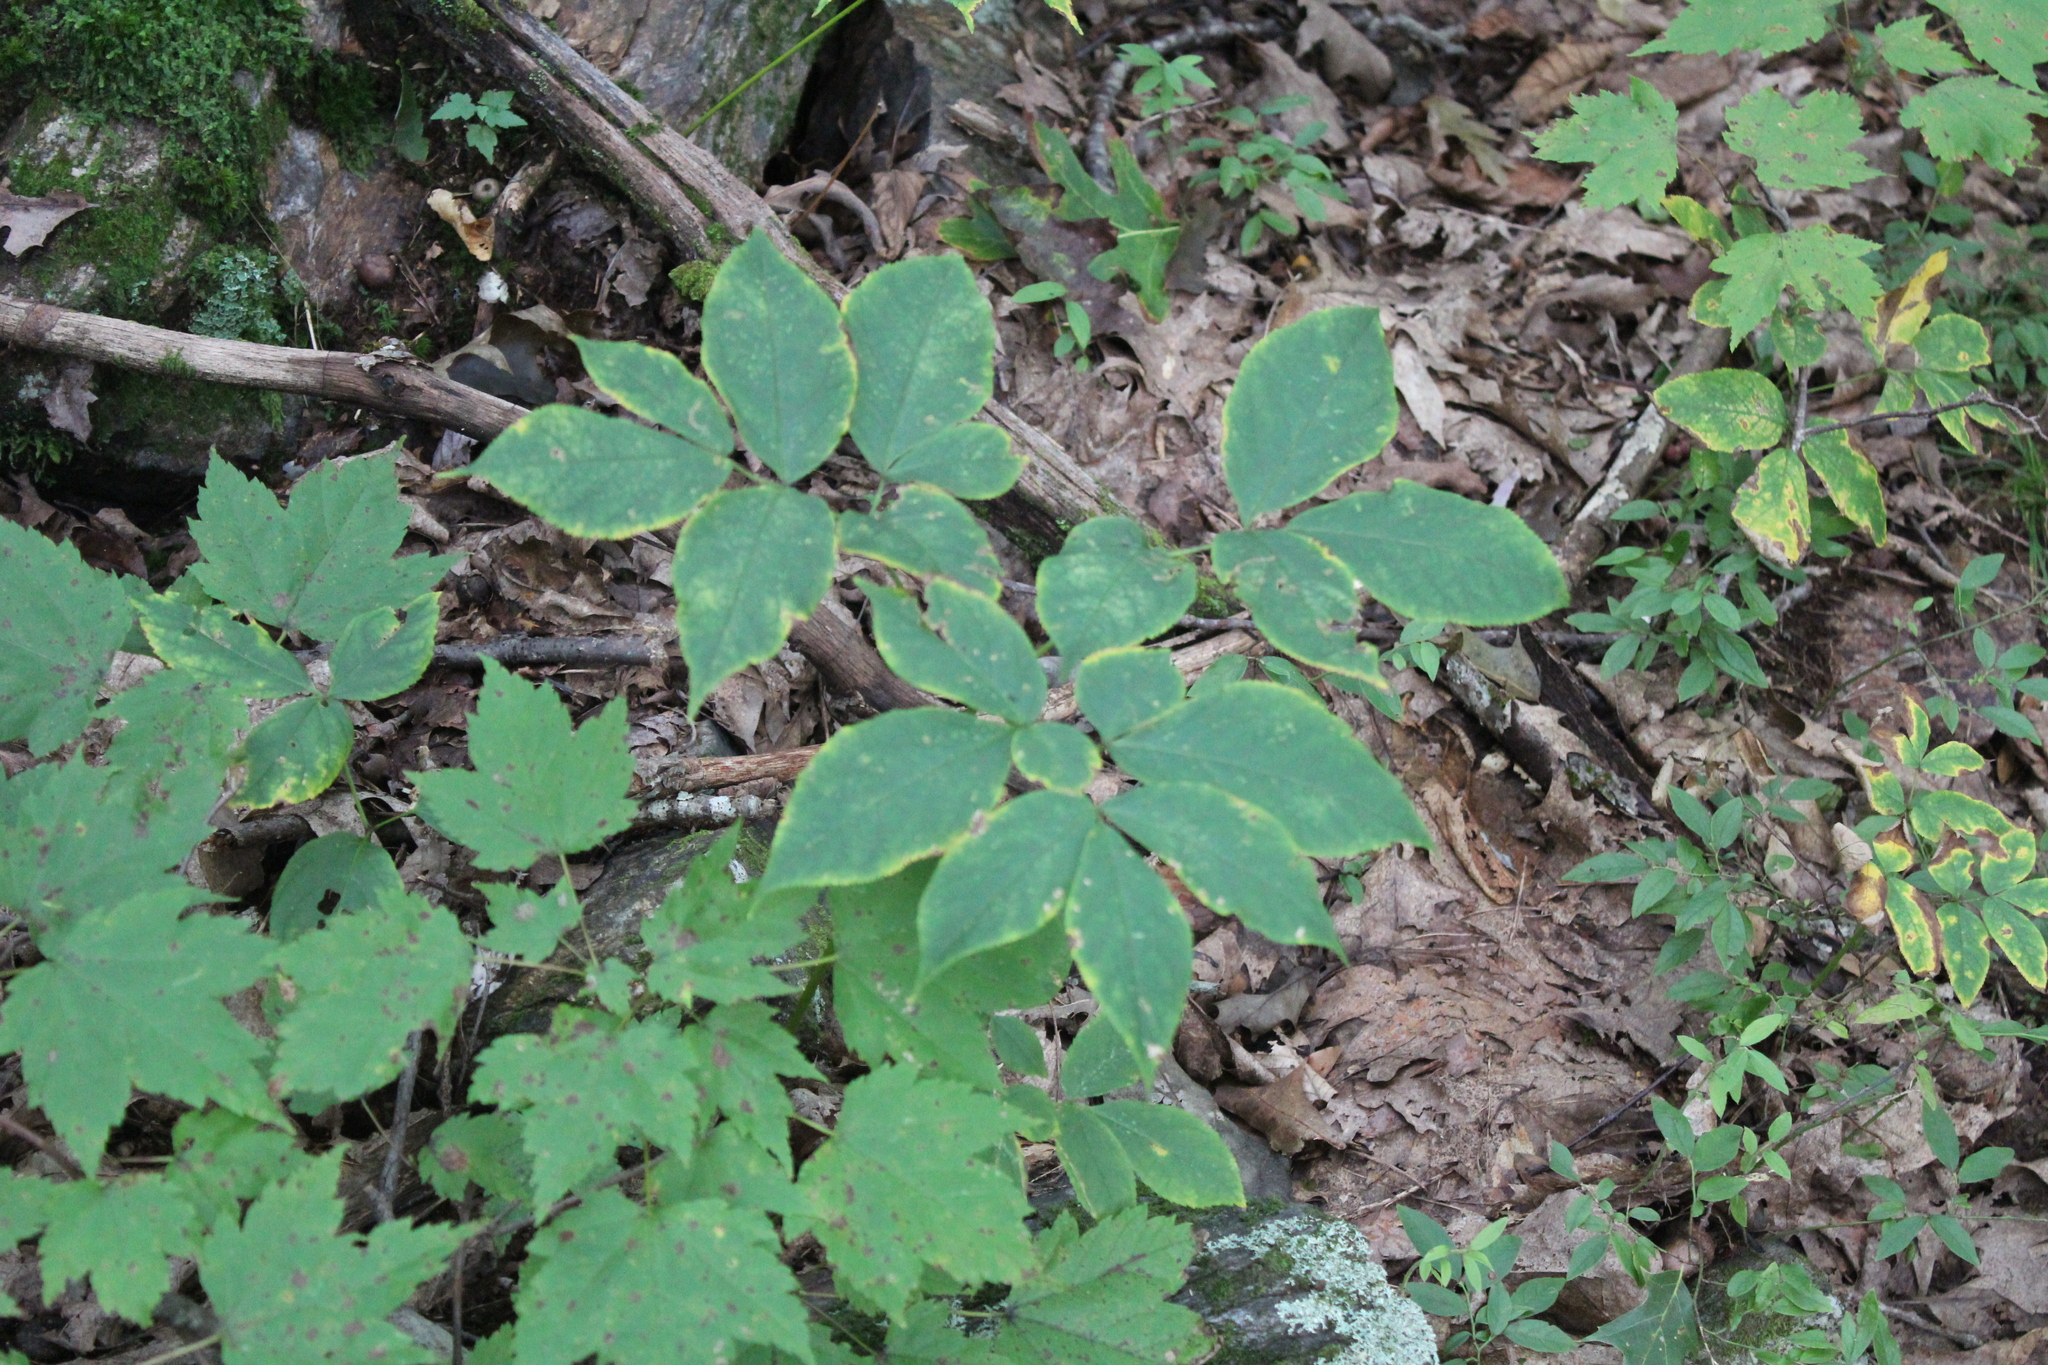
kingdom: Plantae
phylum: Tracheophyta
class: Magnoliopsida
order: Apiales
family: Araliaceae
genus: Aralia
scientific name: Aralia nudicaulis
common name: Wild sarsaparilla
